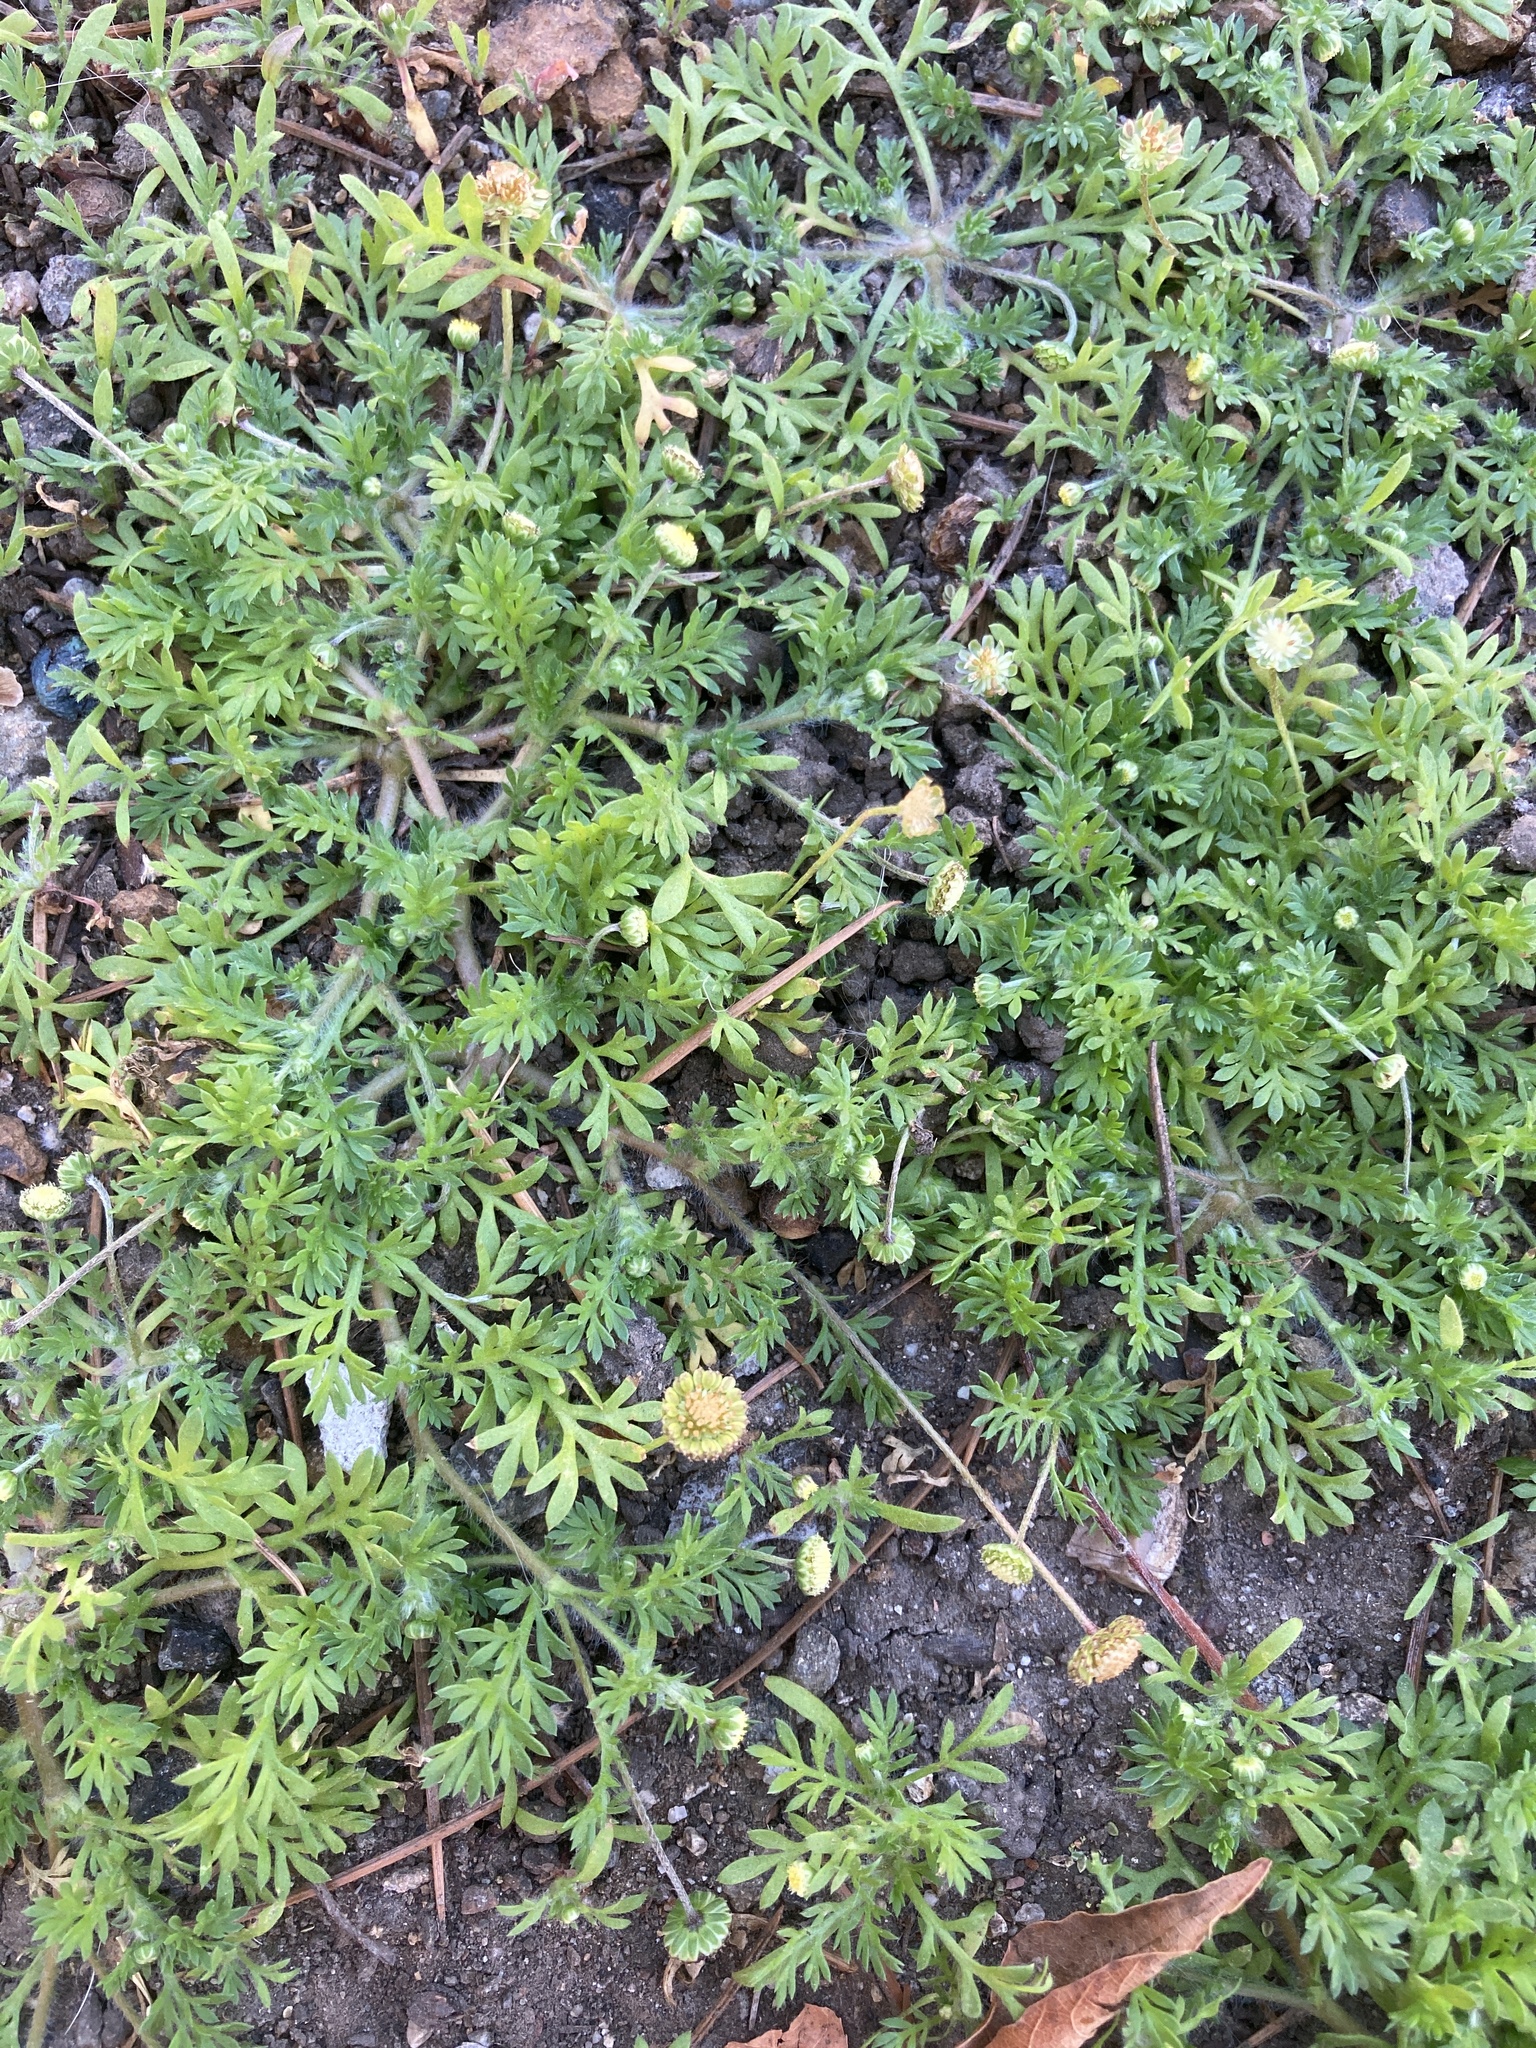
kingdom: Plantae
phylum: Tracheophyta
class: Magnoliopsida
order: Asterales
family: Asteraceae
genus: Cotula
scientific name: Cotula australis
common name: Australian waterbuttons
